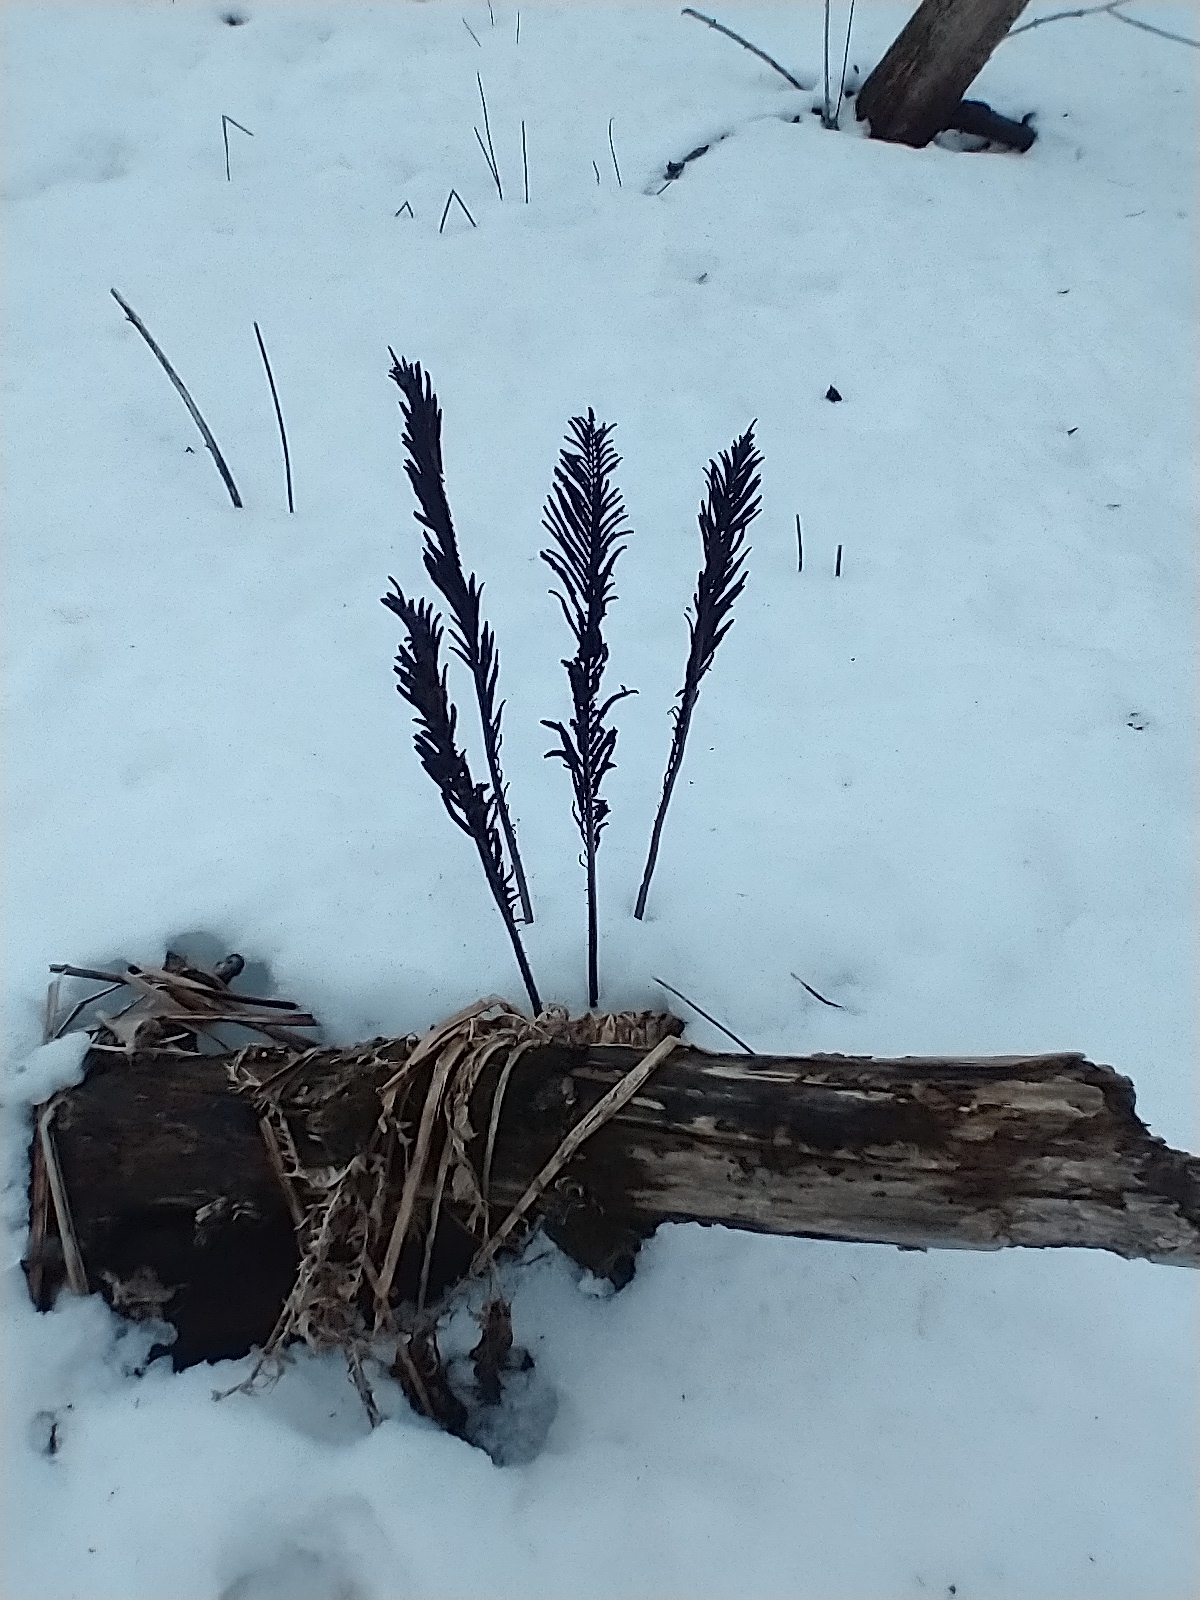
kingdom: Plantae
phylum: Tracheophyta
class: Polypodiopsida
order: Polypodiales
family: Onocleaceae
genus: Matteuccia
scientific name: Matteuccia struthiopteris
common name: Ostrich fern
